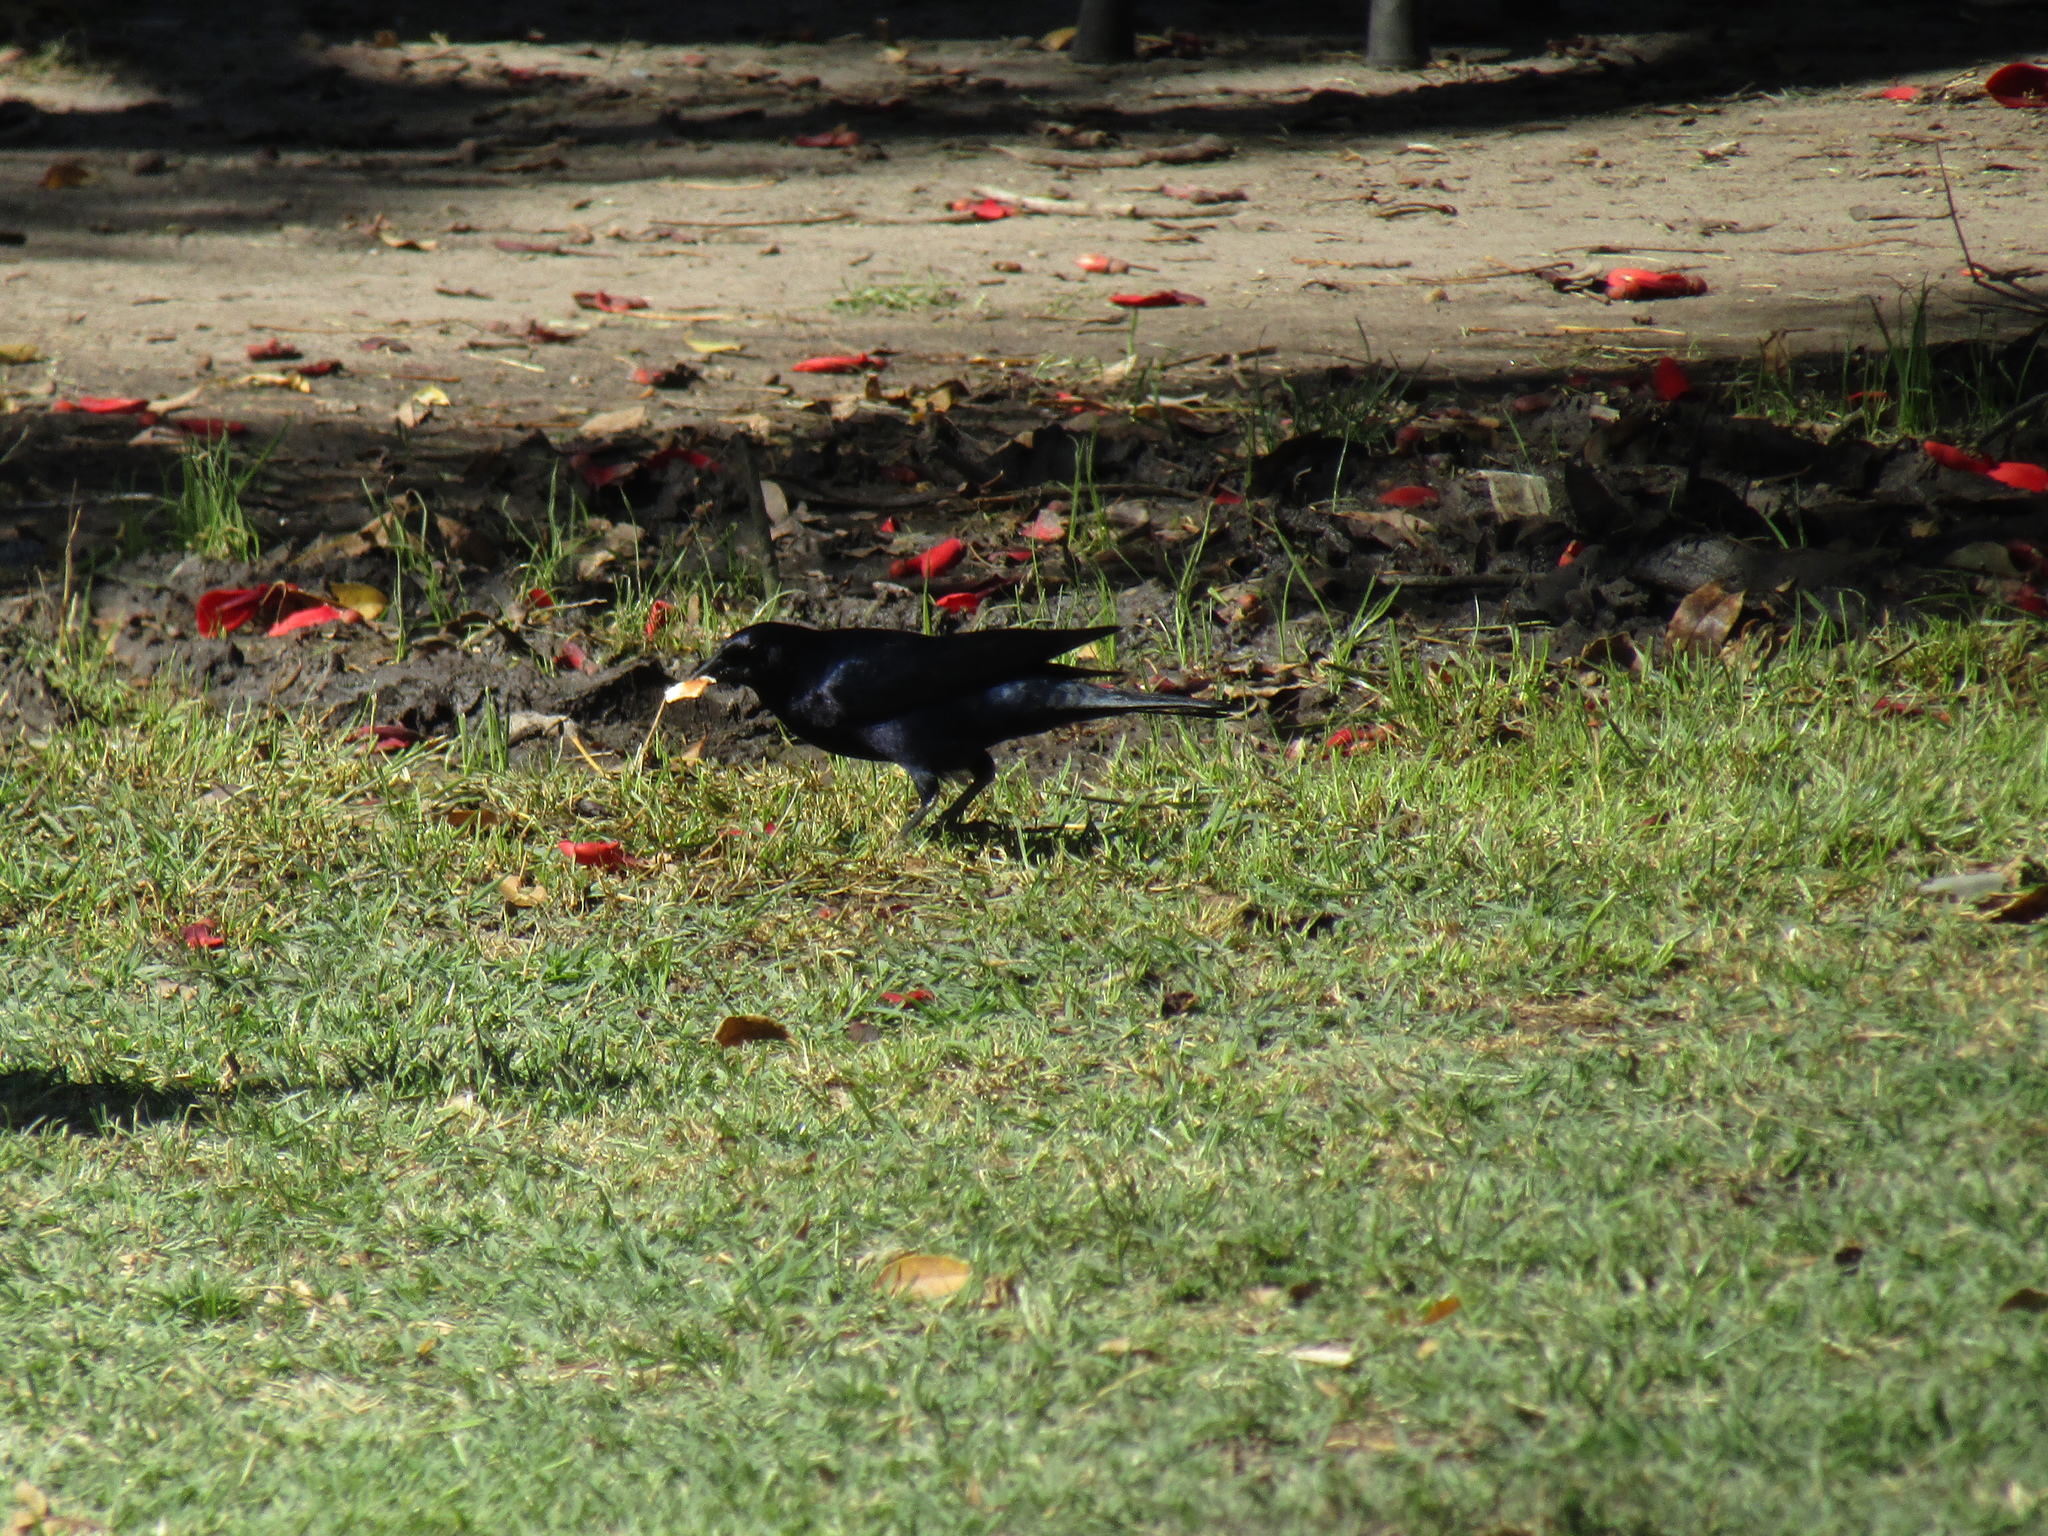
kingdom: Animalia
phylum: Chordata
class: Aves
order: Passeriformes
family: Icteridae
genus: Molothrus
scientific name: Molothrus bonariensis
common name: Shiny cowbird
